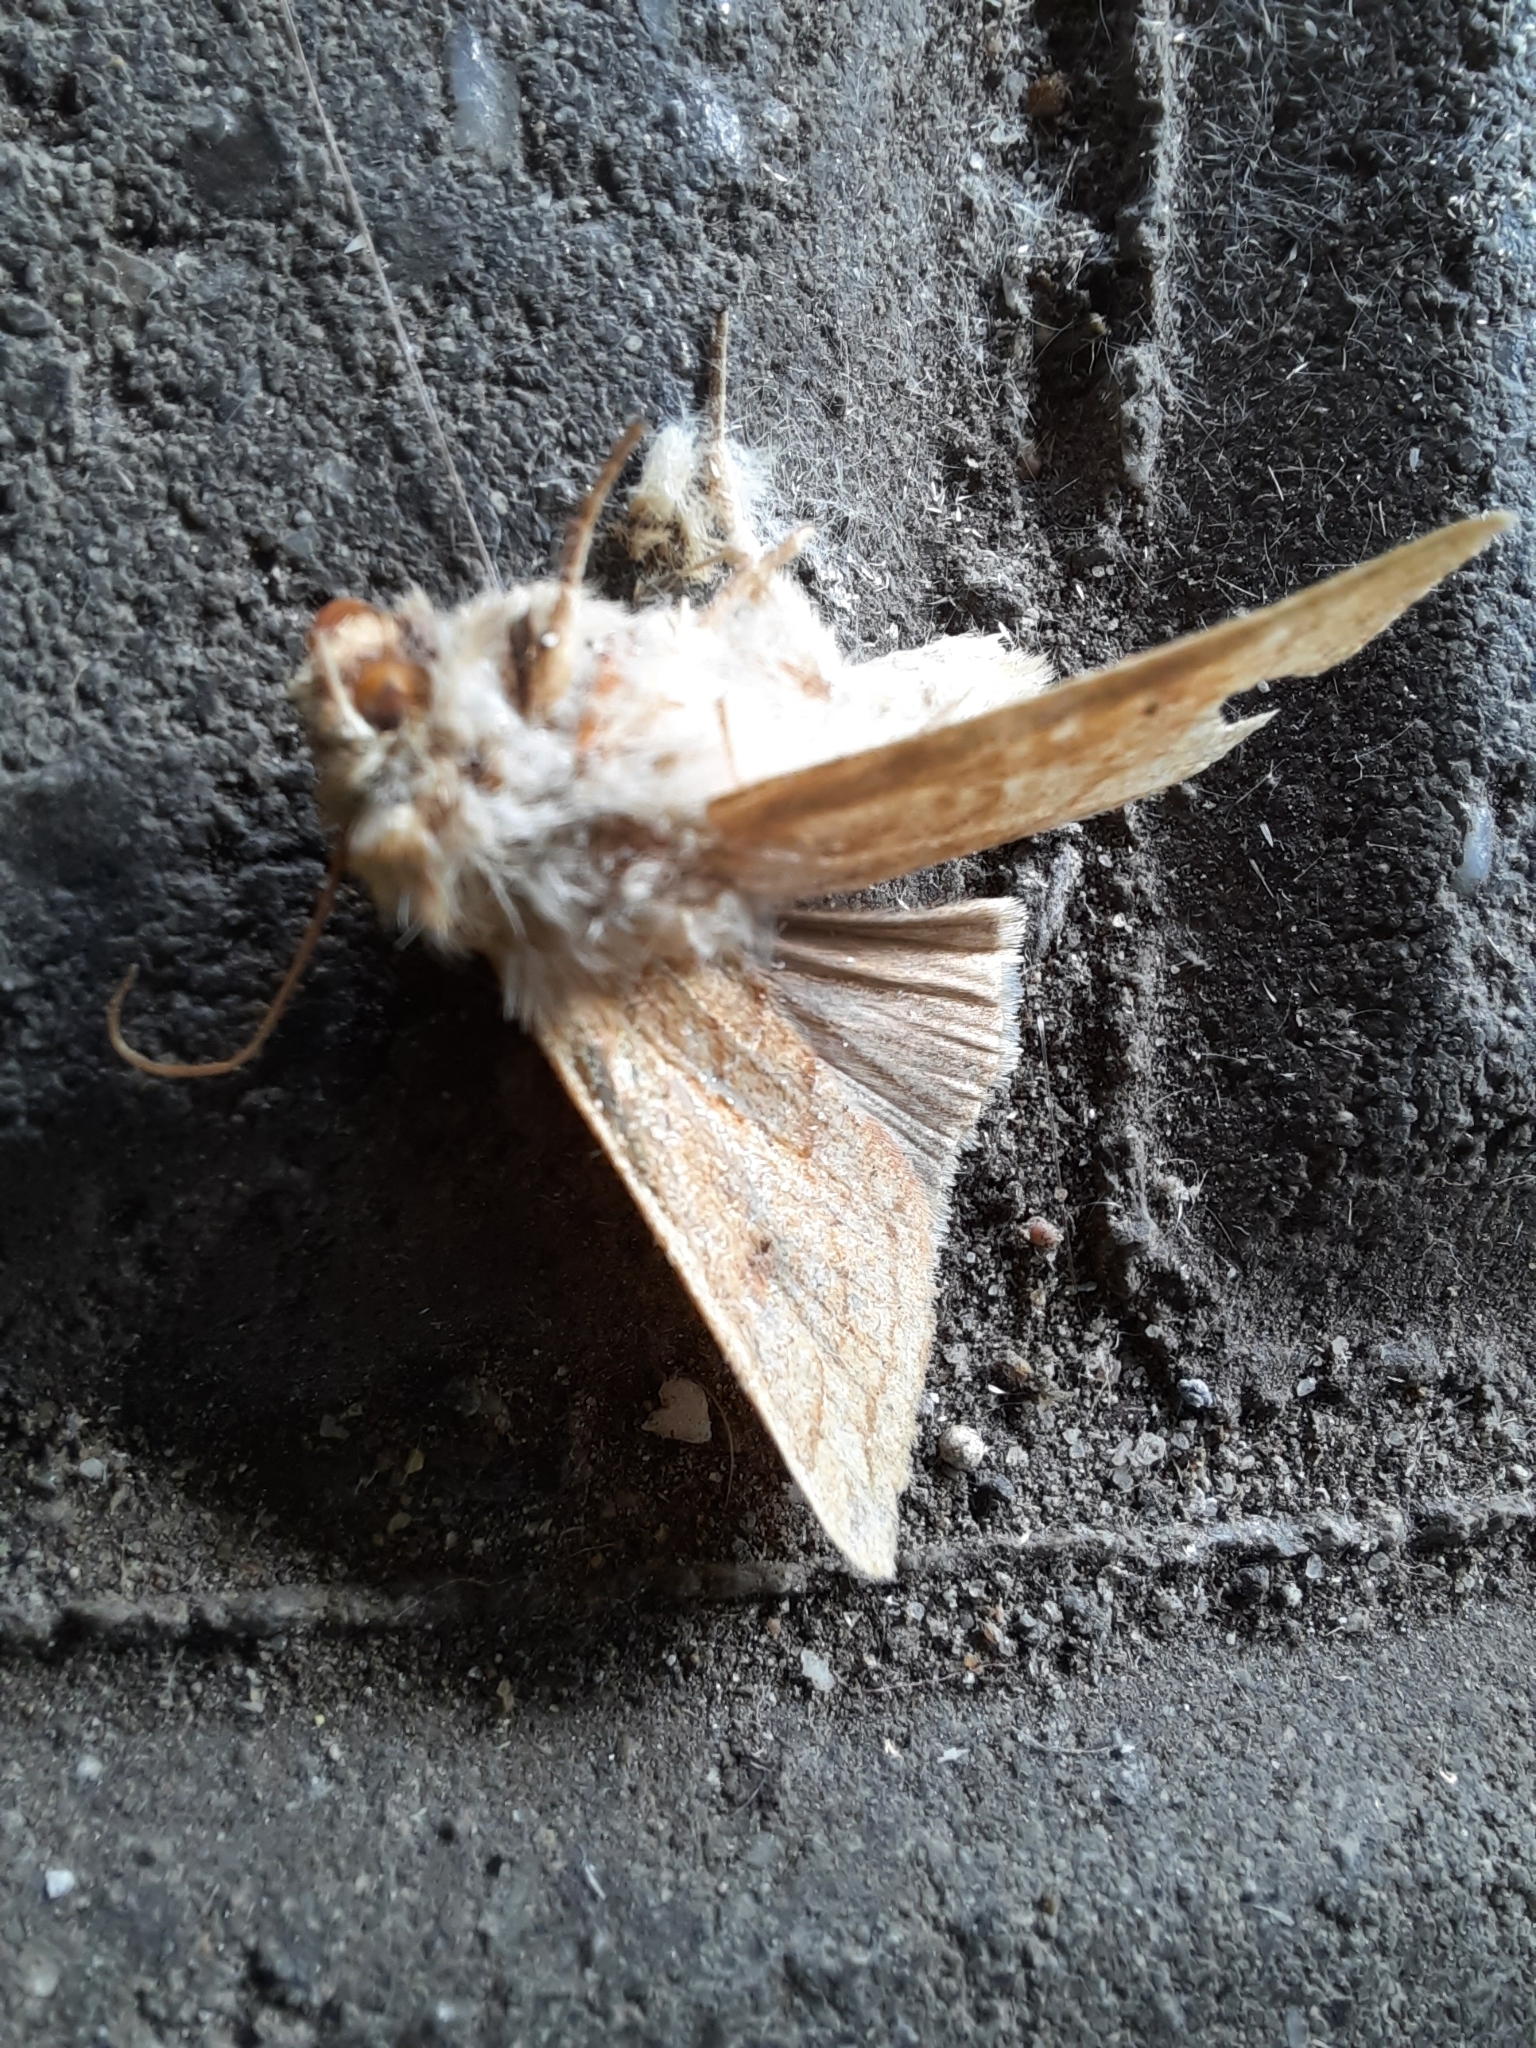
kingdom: Animalia
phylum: Arthropoda
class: Insecta
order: Lepidoptera
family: Noctuidae
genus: Mythimna
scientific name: Mythimna vitellina
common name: Delicate
